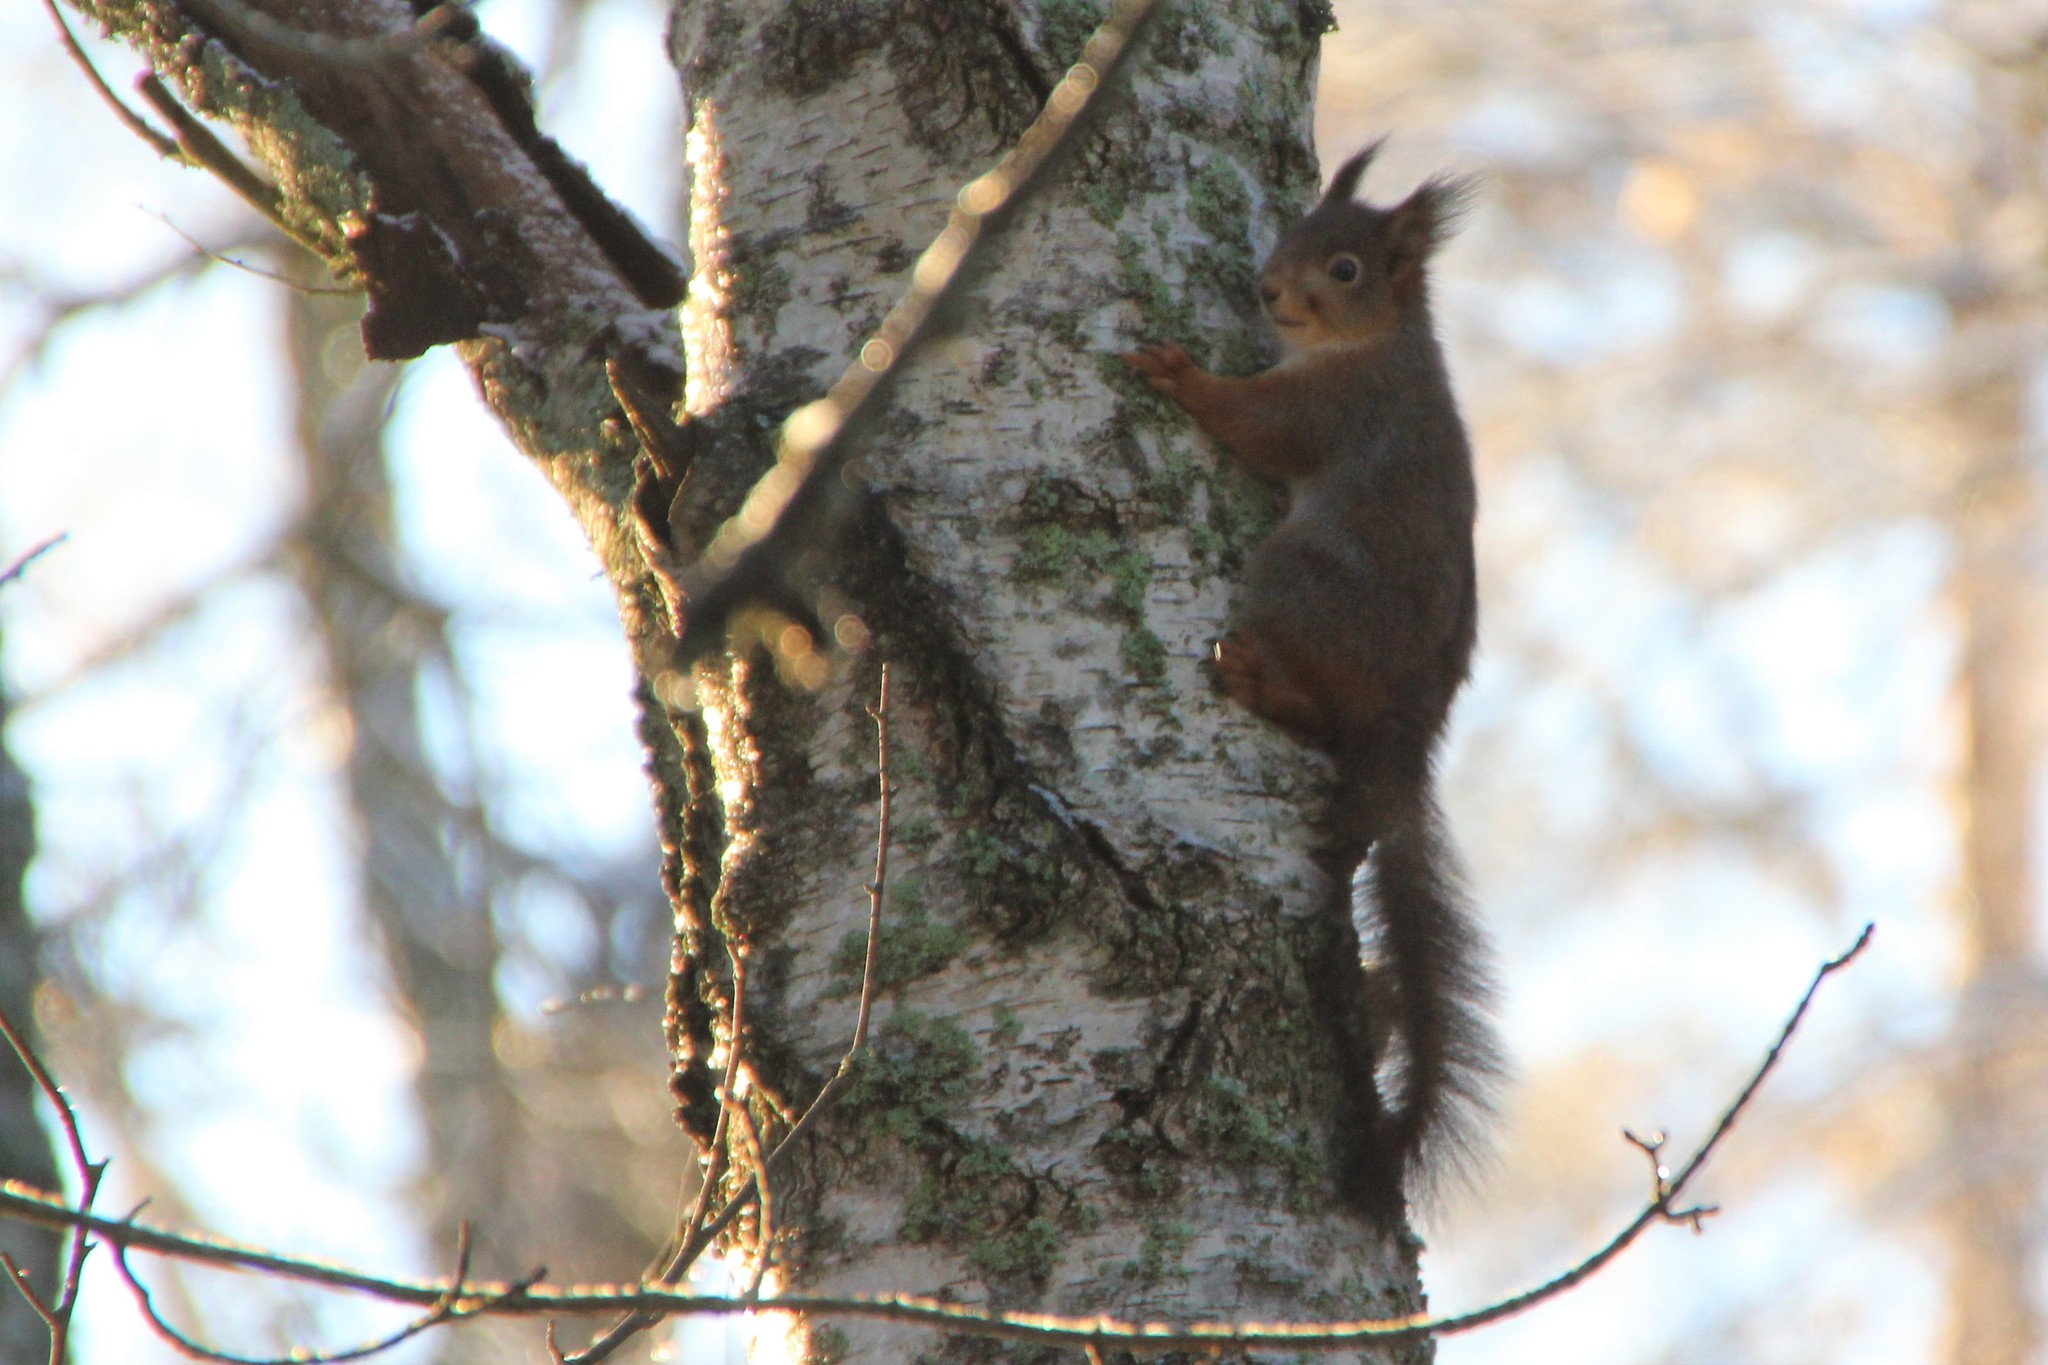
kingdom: Animalia
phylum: Chordata
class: Mammalia
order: Rodentia
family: Sciuridae
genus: Sciurus
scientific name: Sciurus vulgaris
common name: Eurasian red squirrel
